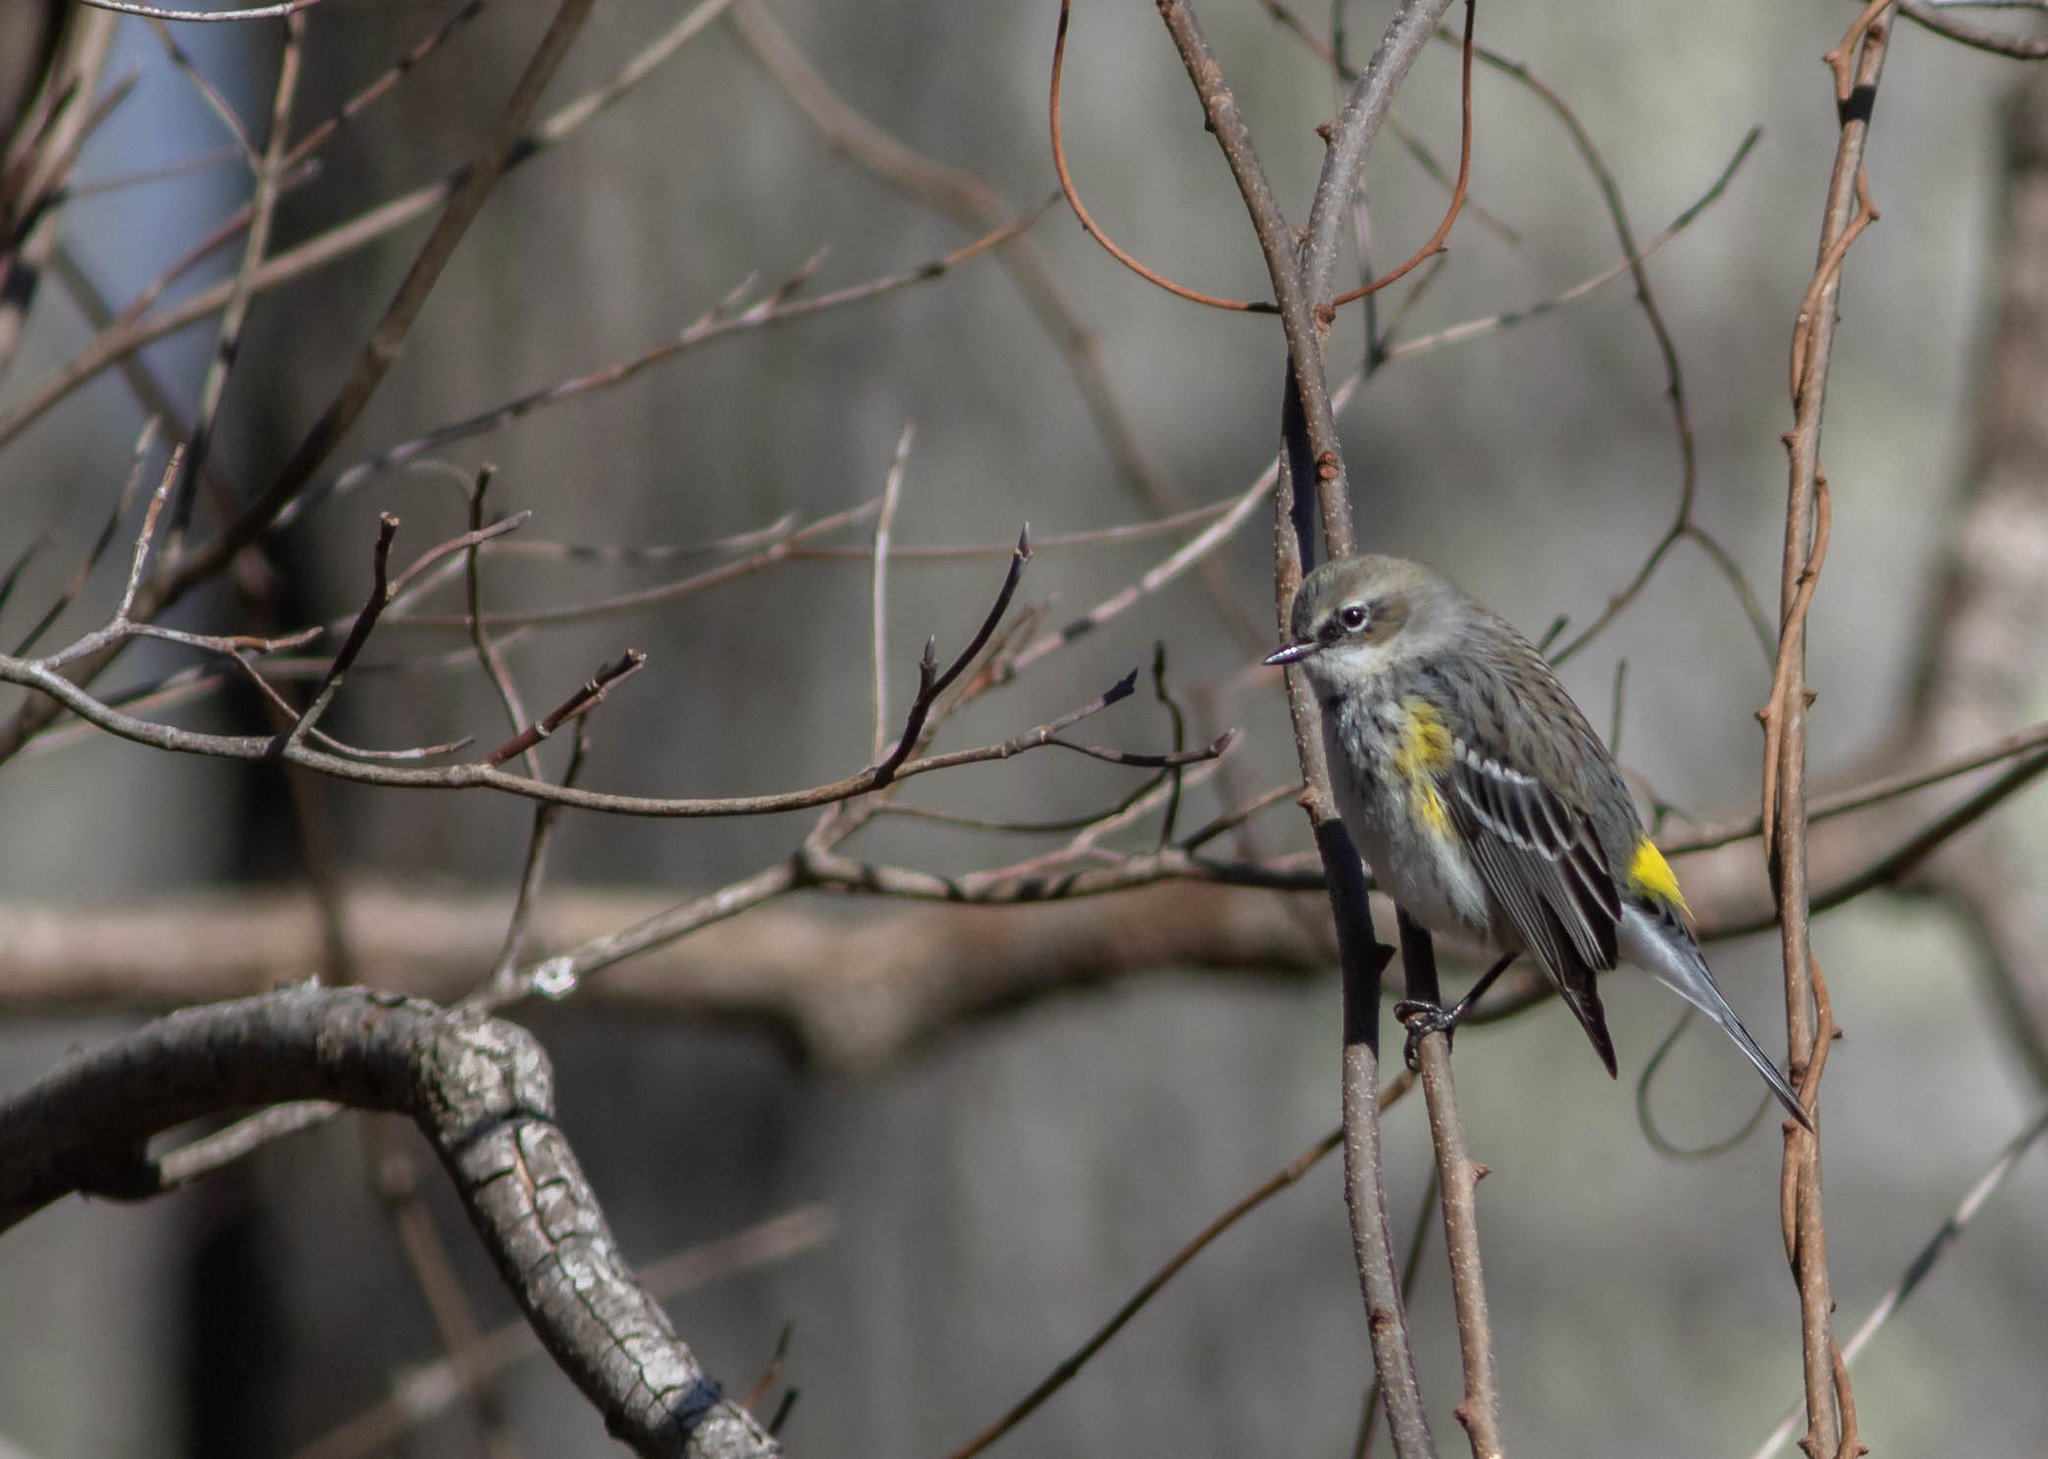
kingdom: Animalia
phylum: Chordata
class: Aves
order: Passeriformes
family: Parulidae
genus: Setophaga
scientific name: Setophaga coronata
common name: Myrtle warbler
